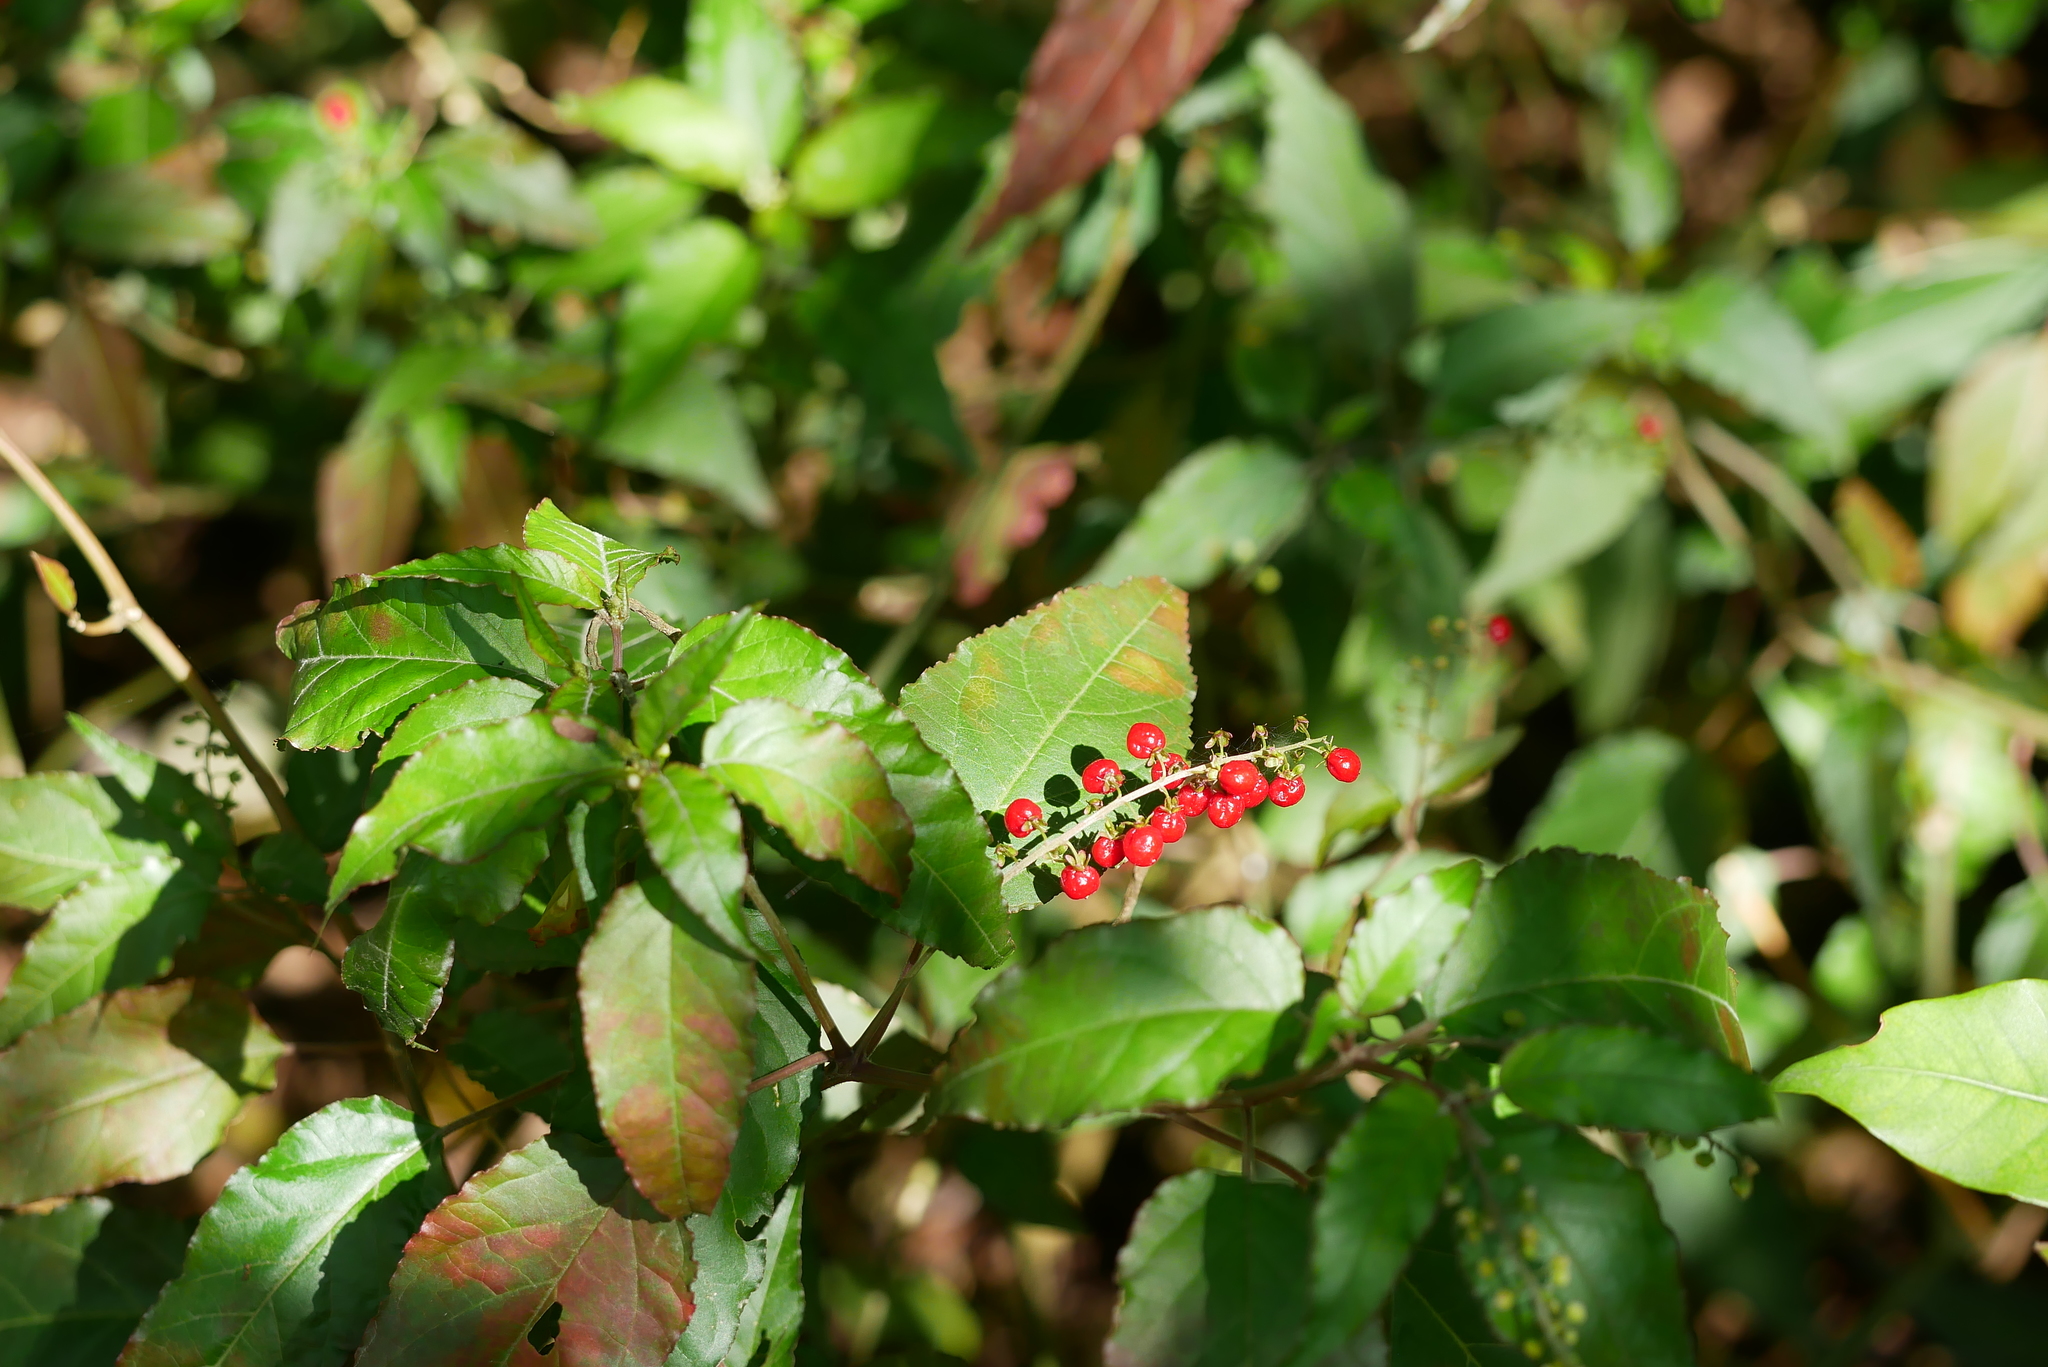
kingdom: Plantae
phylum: Tracheophyta
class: Magnoliopsida
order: Caryophyllales
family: Phytolaccaceae
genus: Rivina
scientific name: Rivina humilis
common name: Rougeplant
